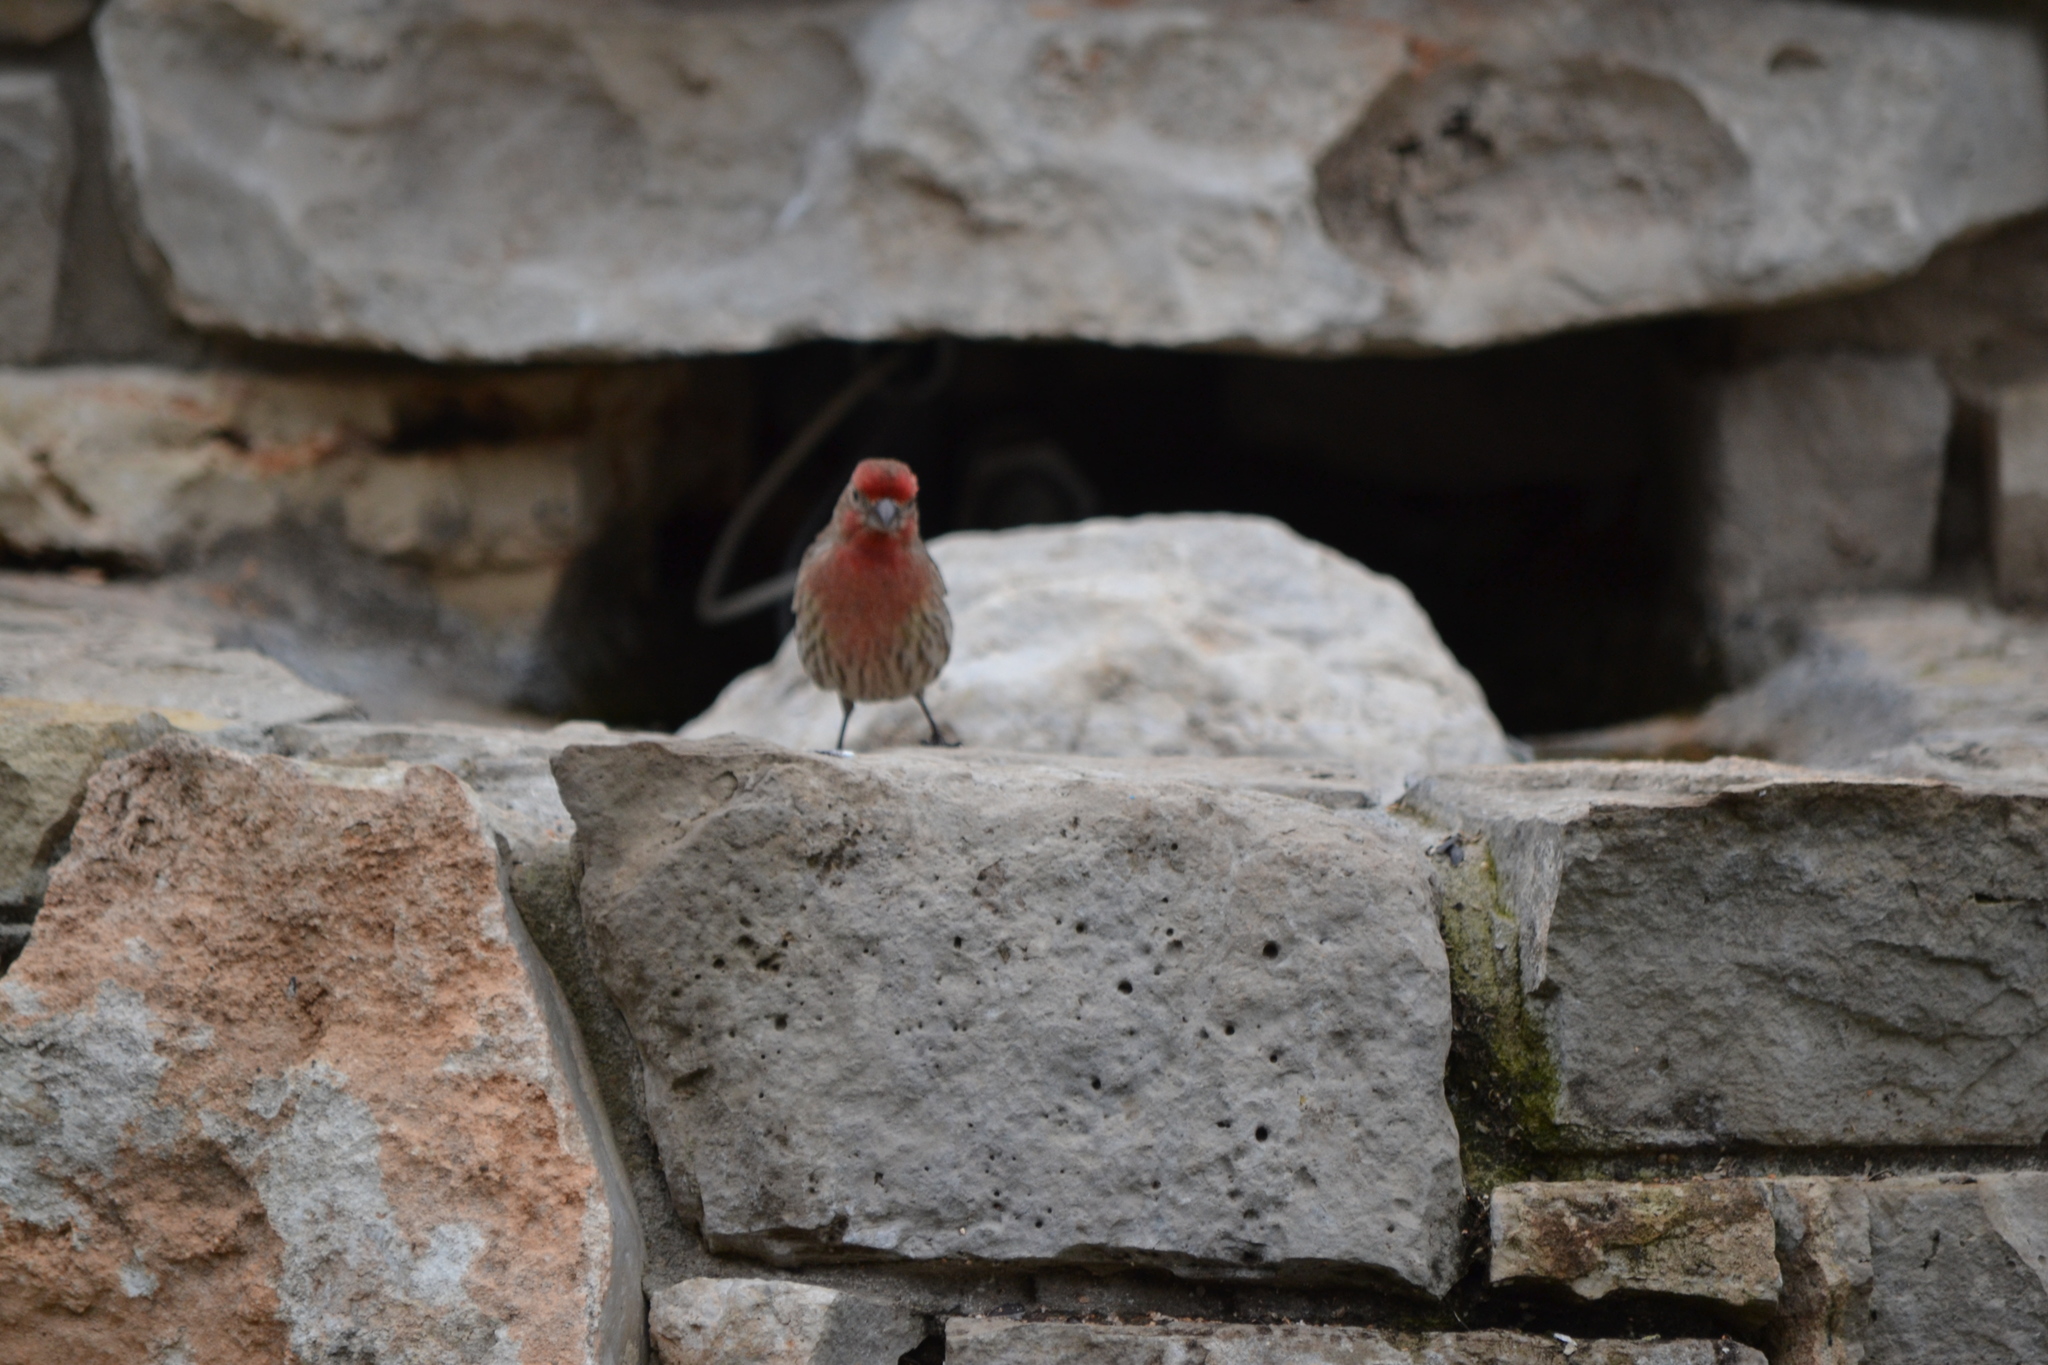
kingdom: Animalia
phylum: Chordata
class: Aves
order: Passeriformes
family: Fringillidae
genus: Haemorhous
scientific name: Haemorhous mexicanus
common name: House finch
